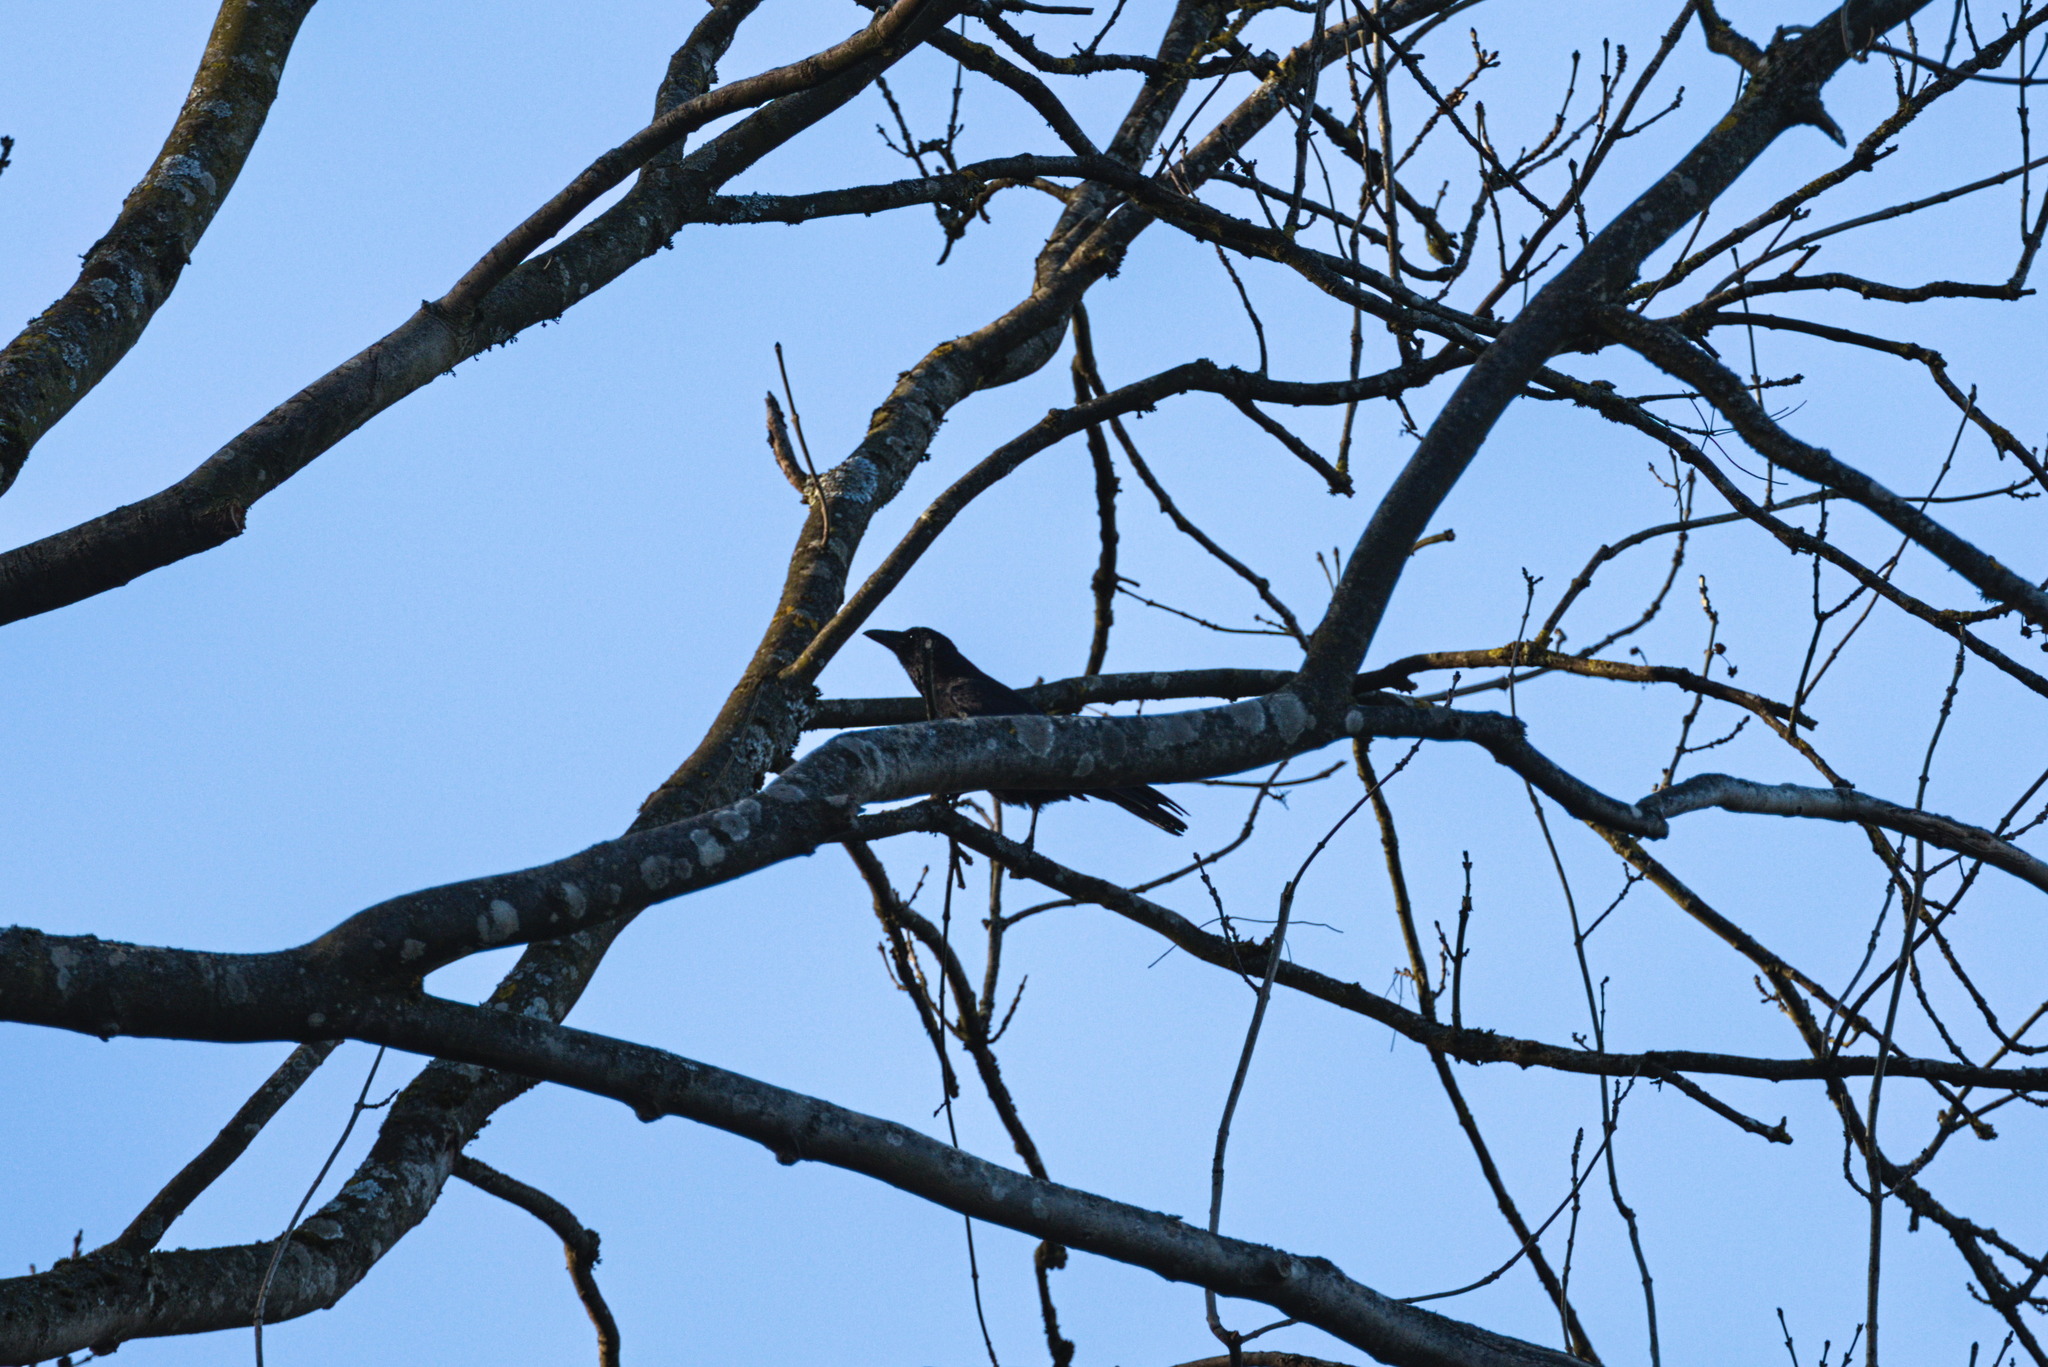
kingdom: Animalia
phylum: Chordata
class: Aves
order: Passeriformes
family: Corvidae
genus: Corvus
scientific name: Corvus corone
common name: Carrion crow
